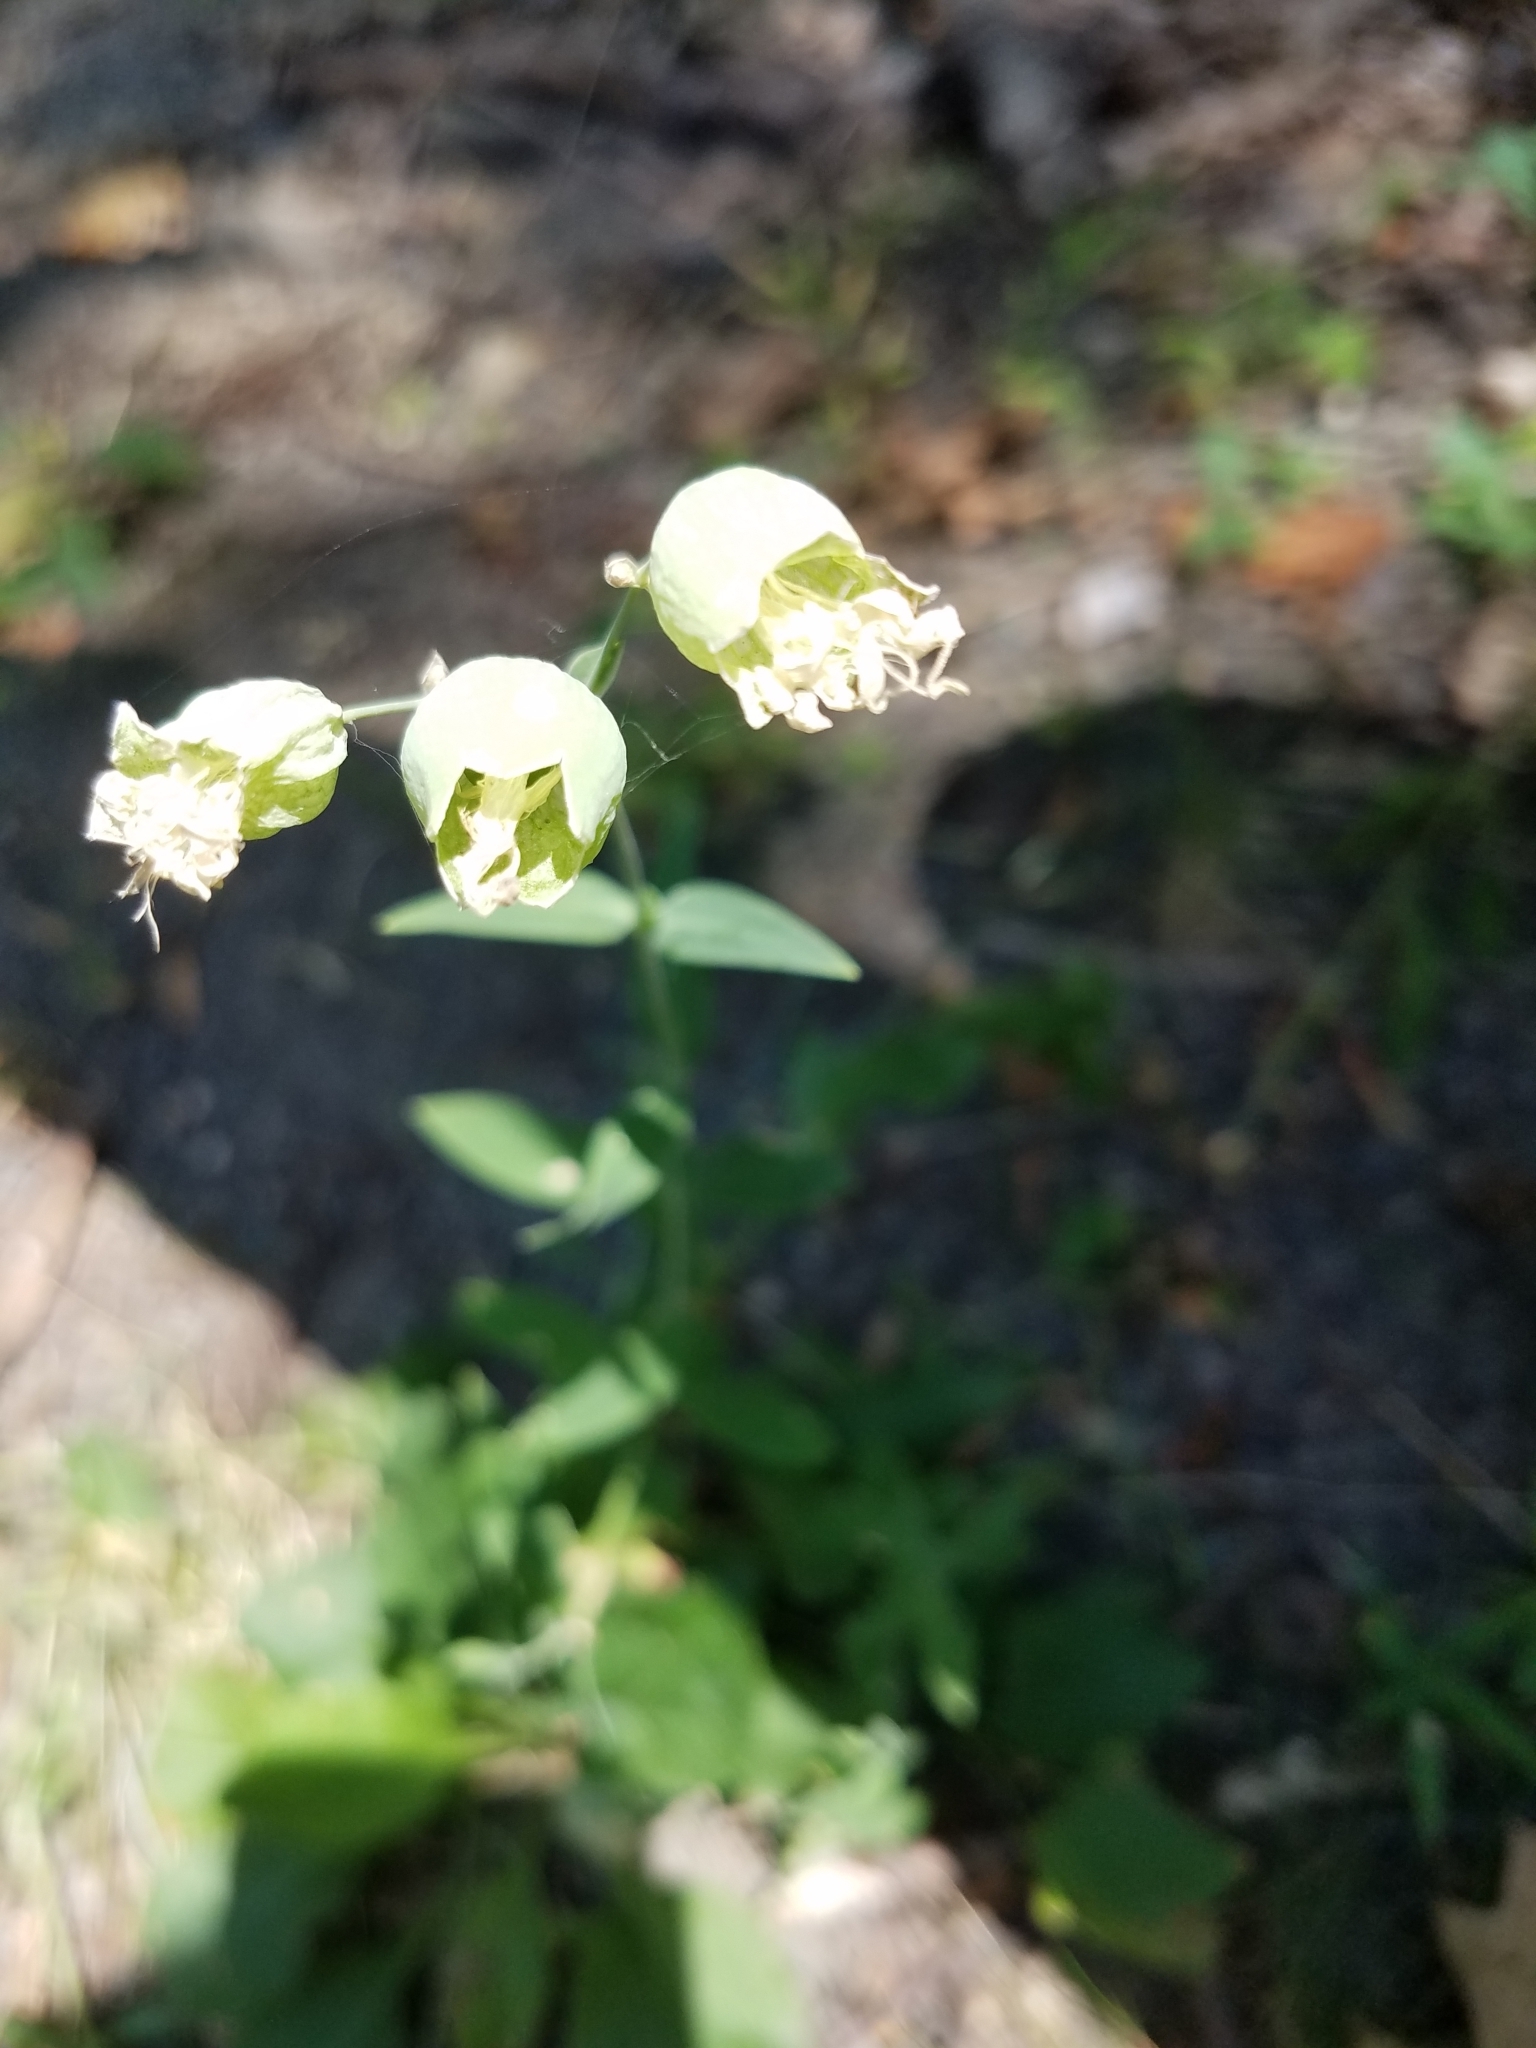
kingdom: Plantae
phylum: Tracheophyta
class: Magnoliopsida
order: Caryophyllales
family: Caryophyllaceae
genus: Silene
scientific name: Silene vulgaris
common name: Bladder campion
